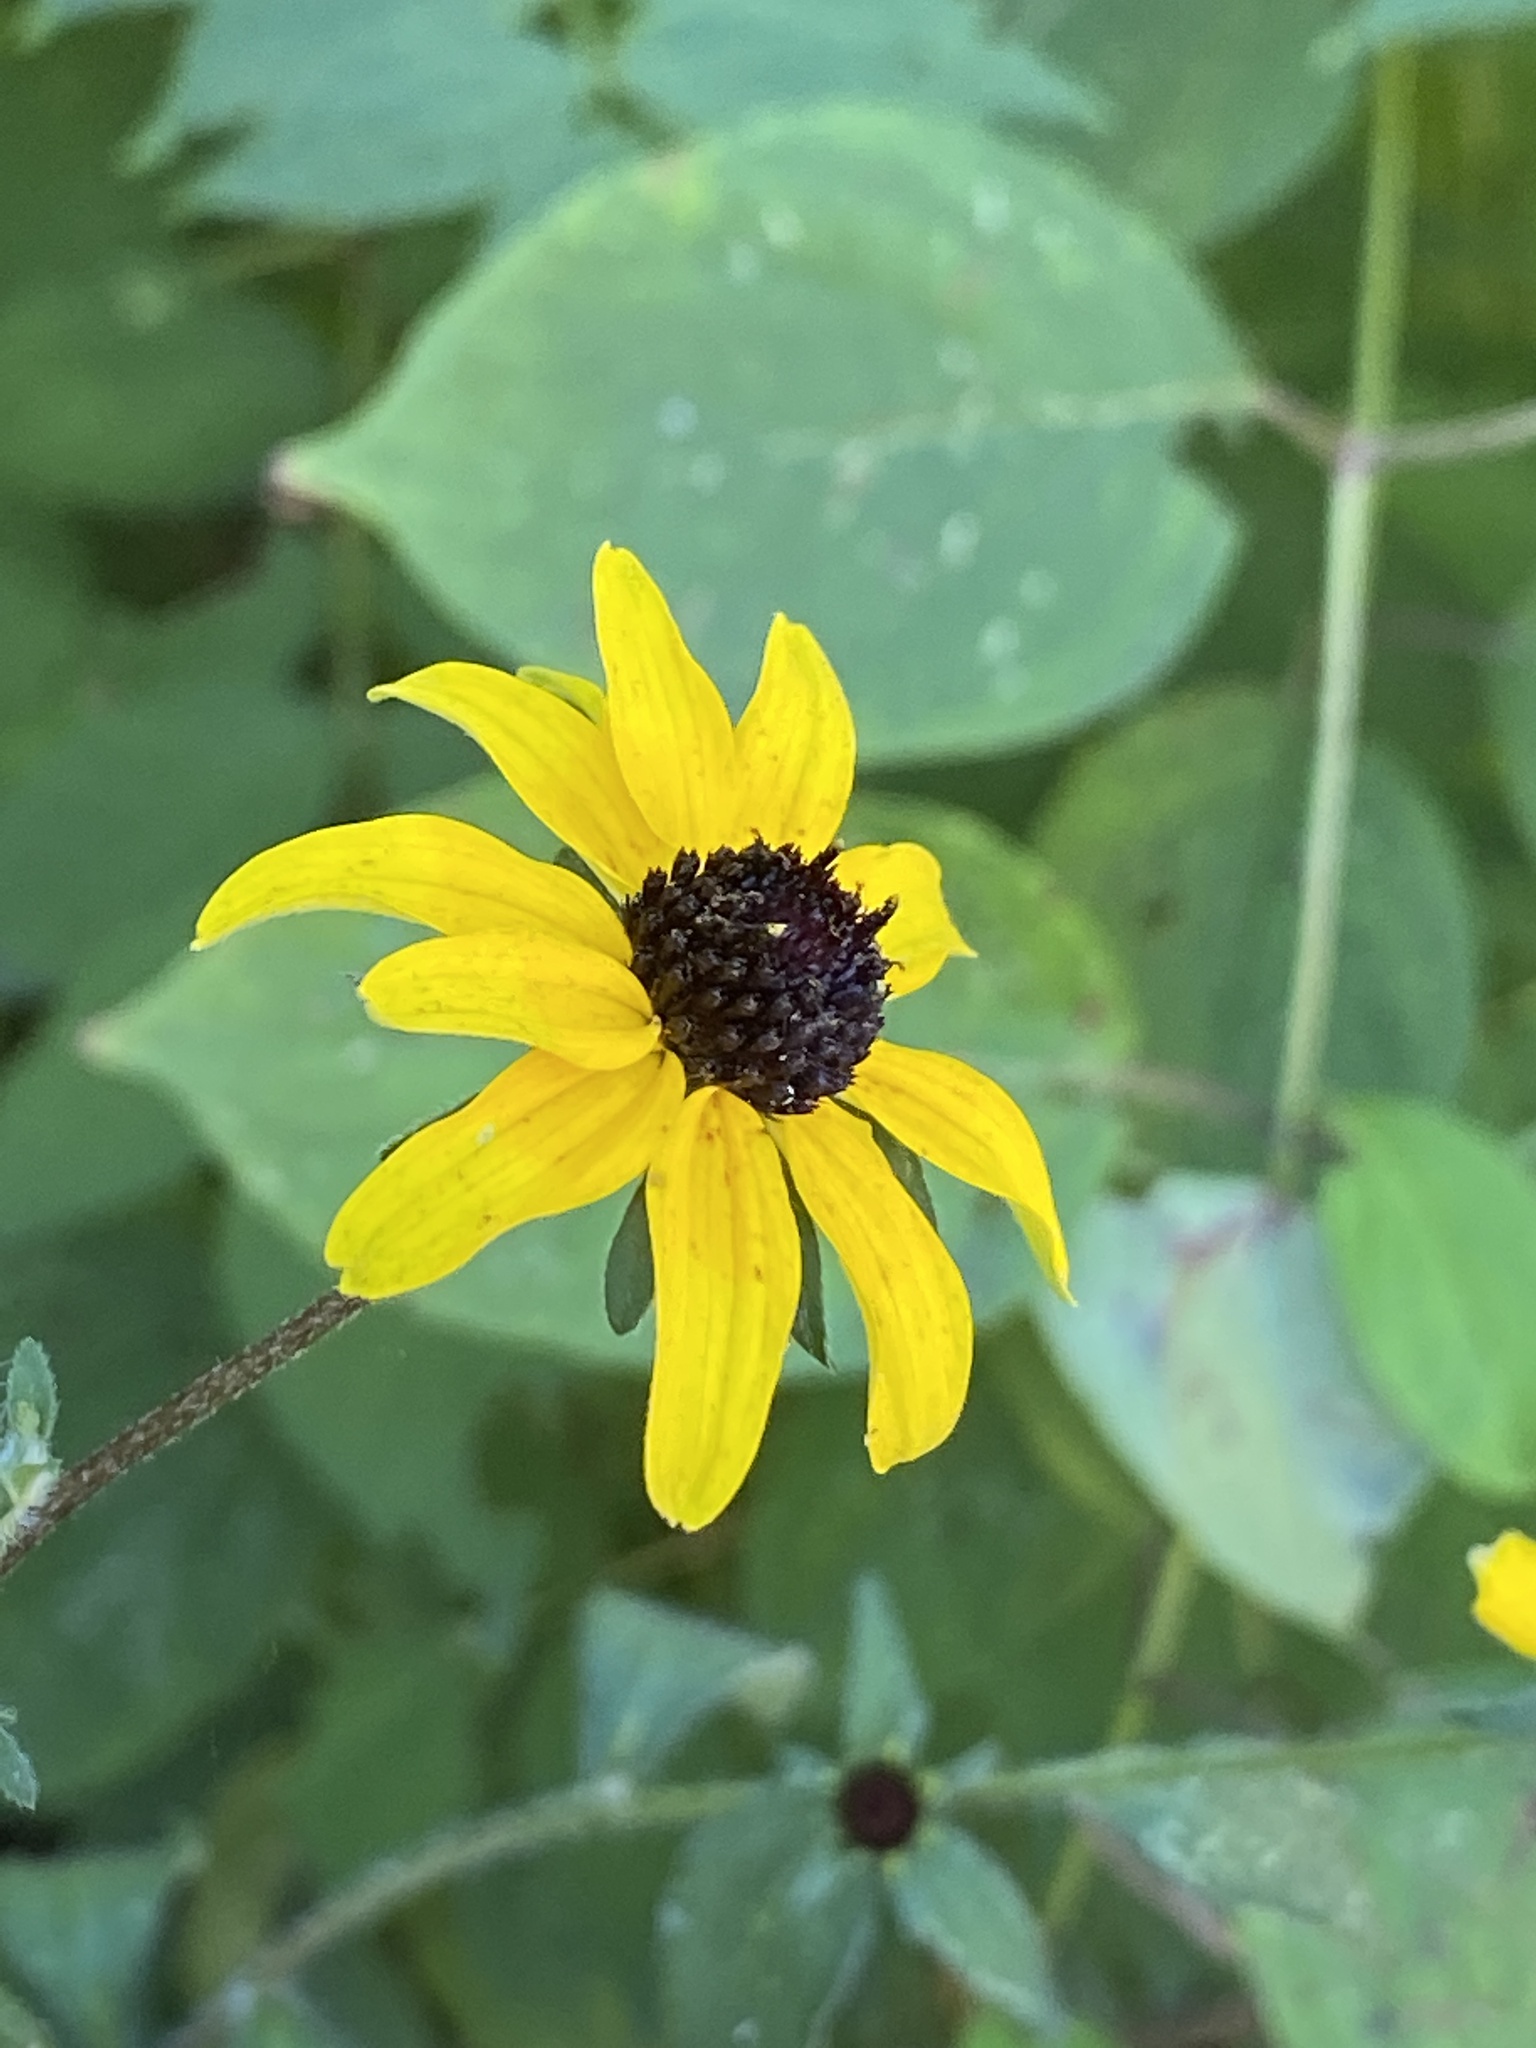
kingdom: Plantae
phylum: Tracheophyta
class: Magnoliopsida
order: Asterales
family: Asteraceae
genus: Rudbeckia
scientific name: Rudbeckia triloba
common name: Thin-leaved coneflower
